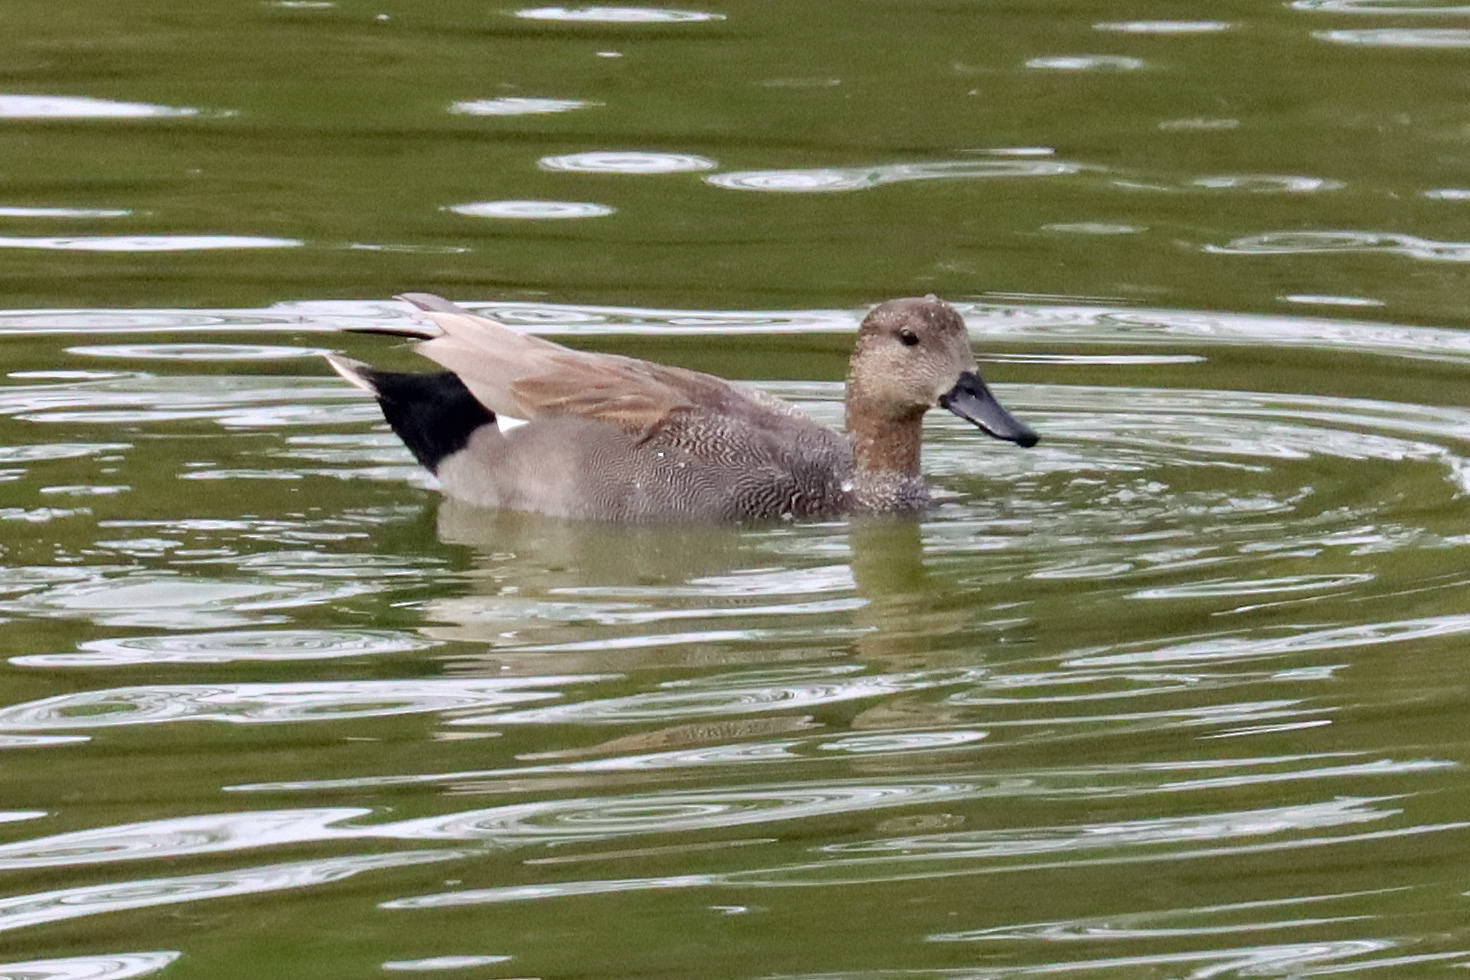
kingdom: Animalia
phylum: Chordata
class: Aves
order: Anseriformes
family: Anatidae
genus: Mareca
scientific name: Mareca strepera
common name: Gadwall
